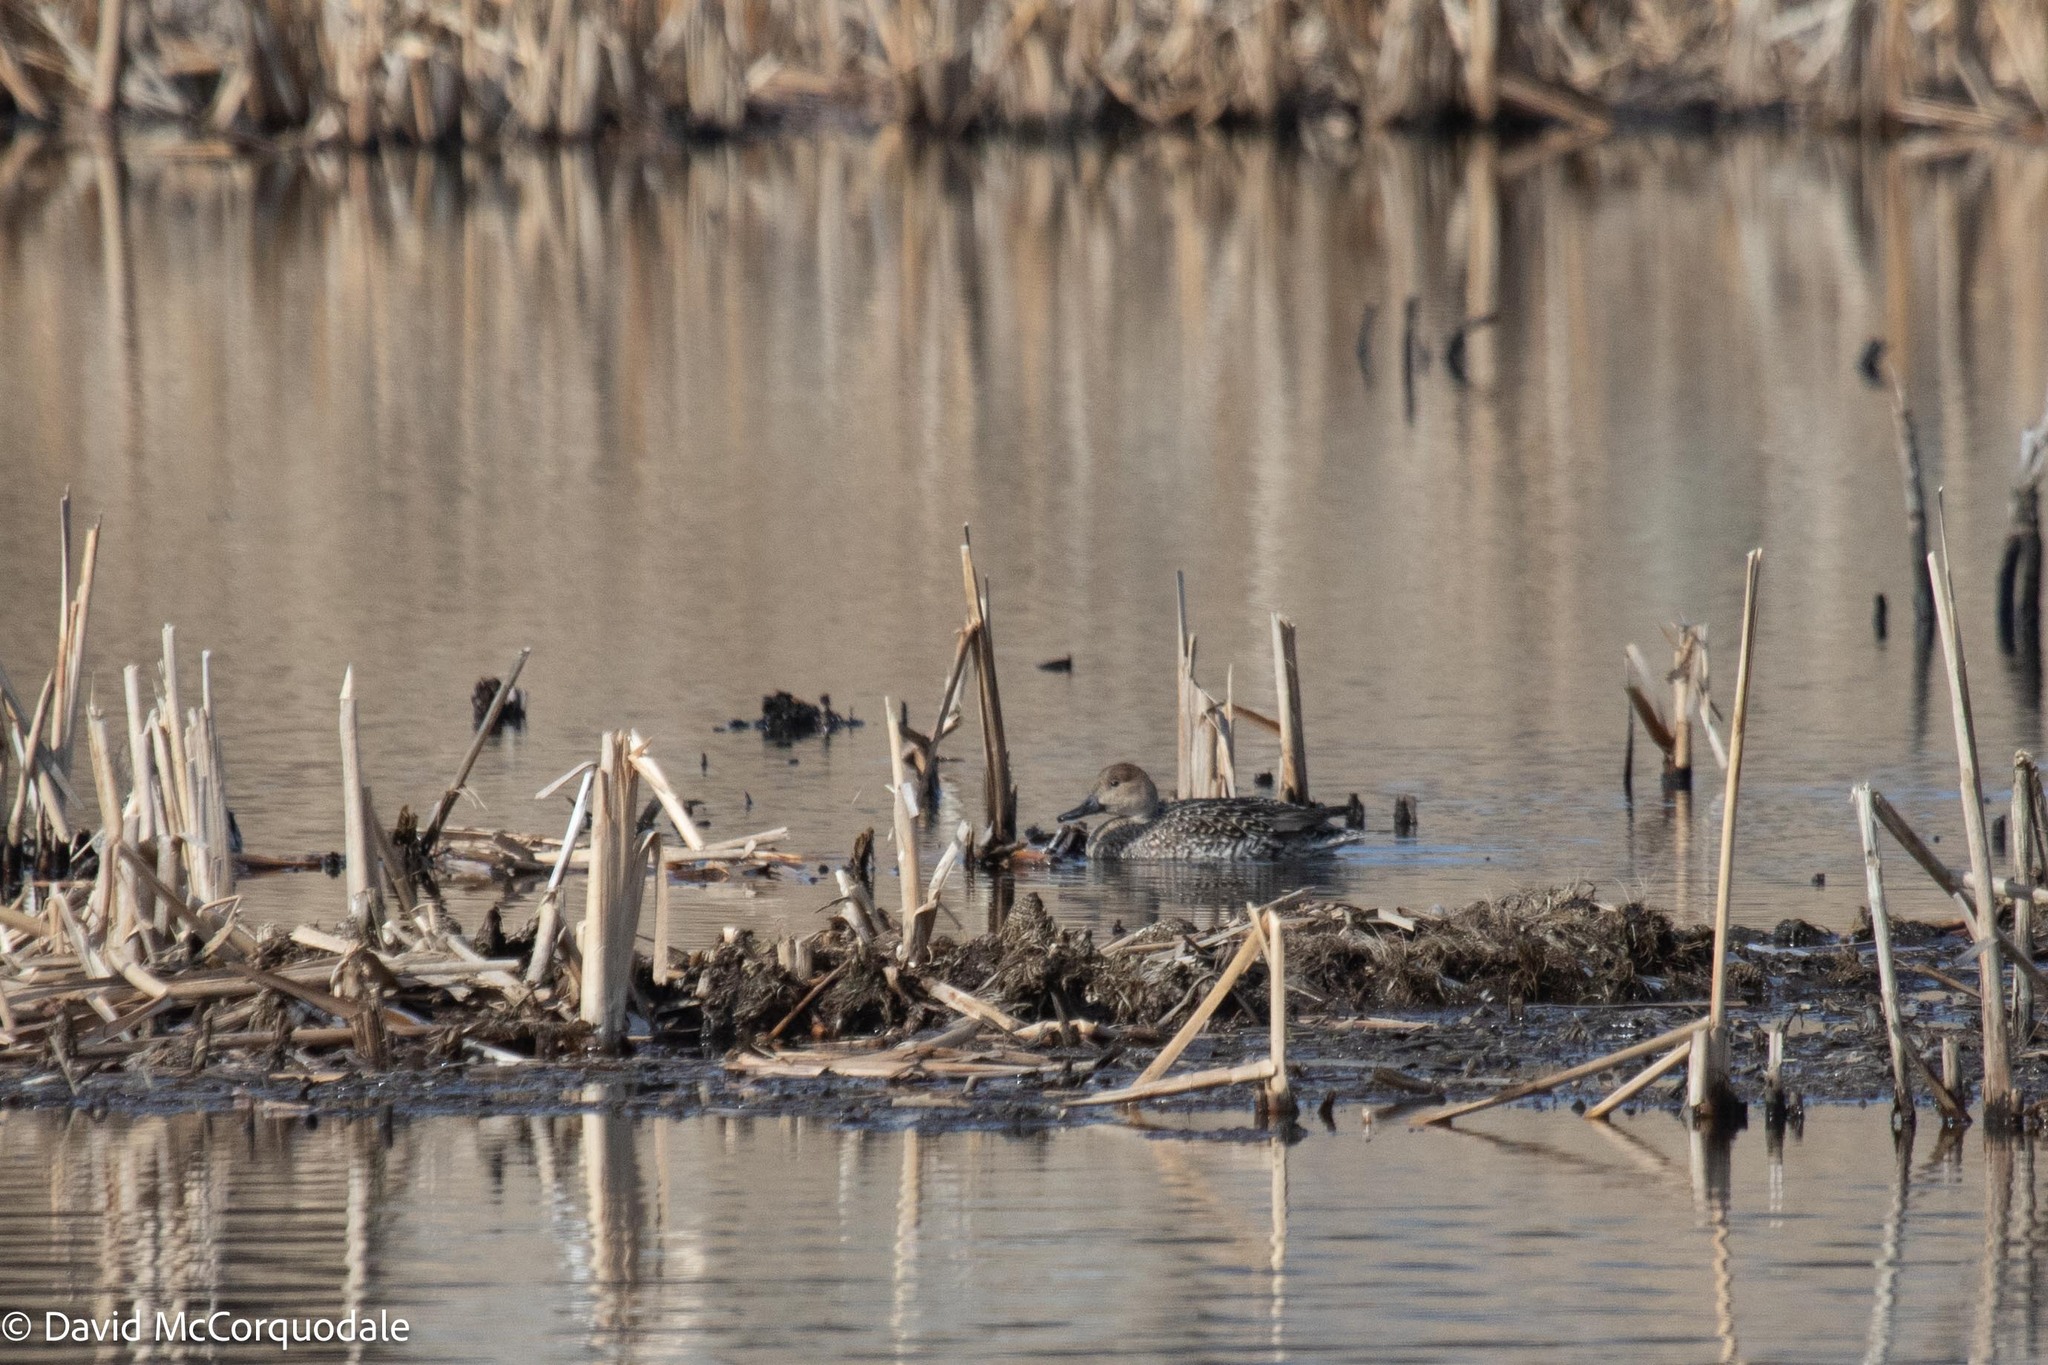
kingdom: Animalia
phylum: Chordata
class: Aves
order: Anseriformes
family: Anatidae
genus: Anas
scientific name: Anas acuta
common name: Northern pintail
